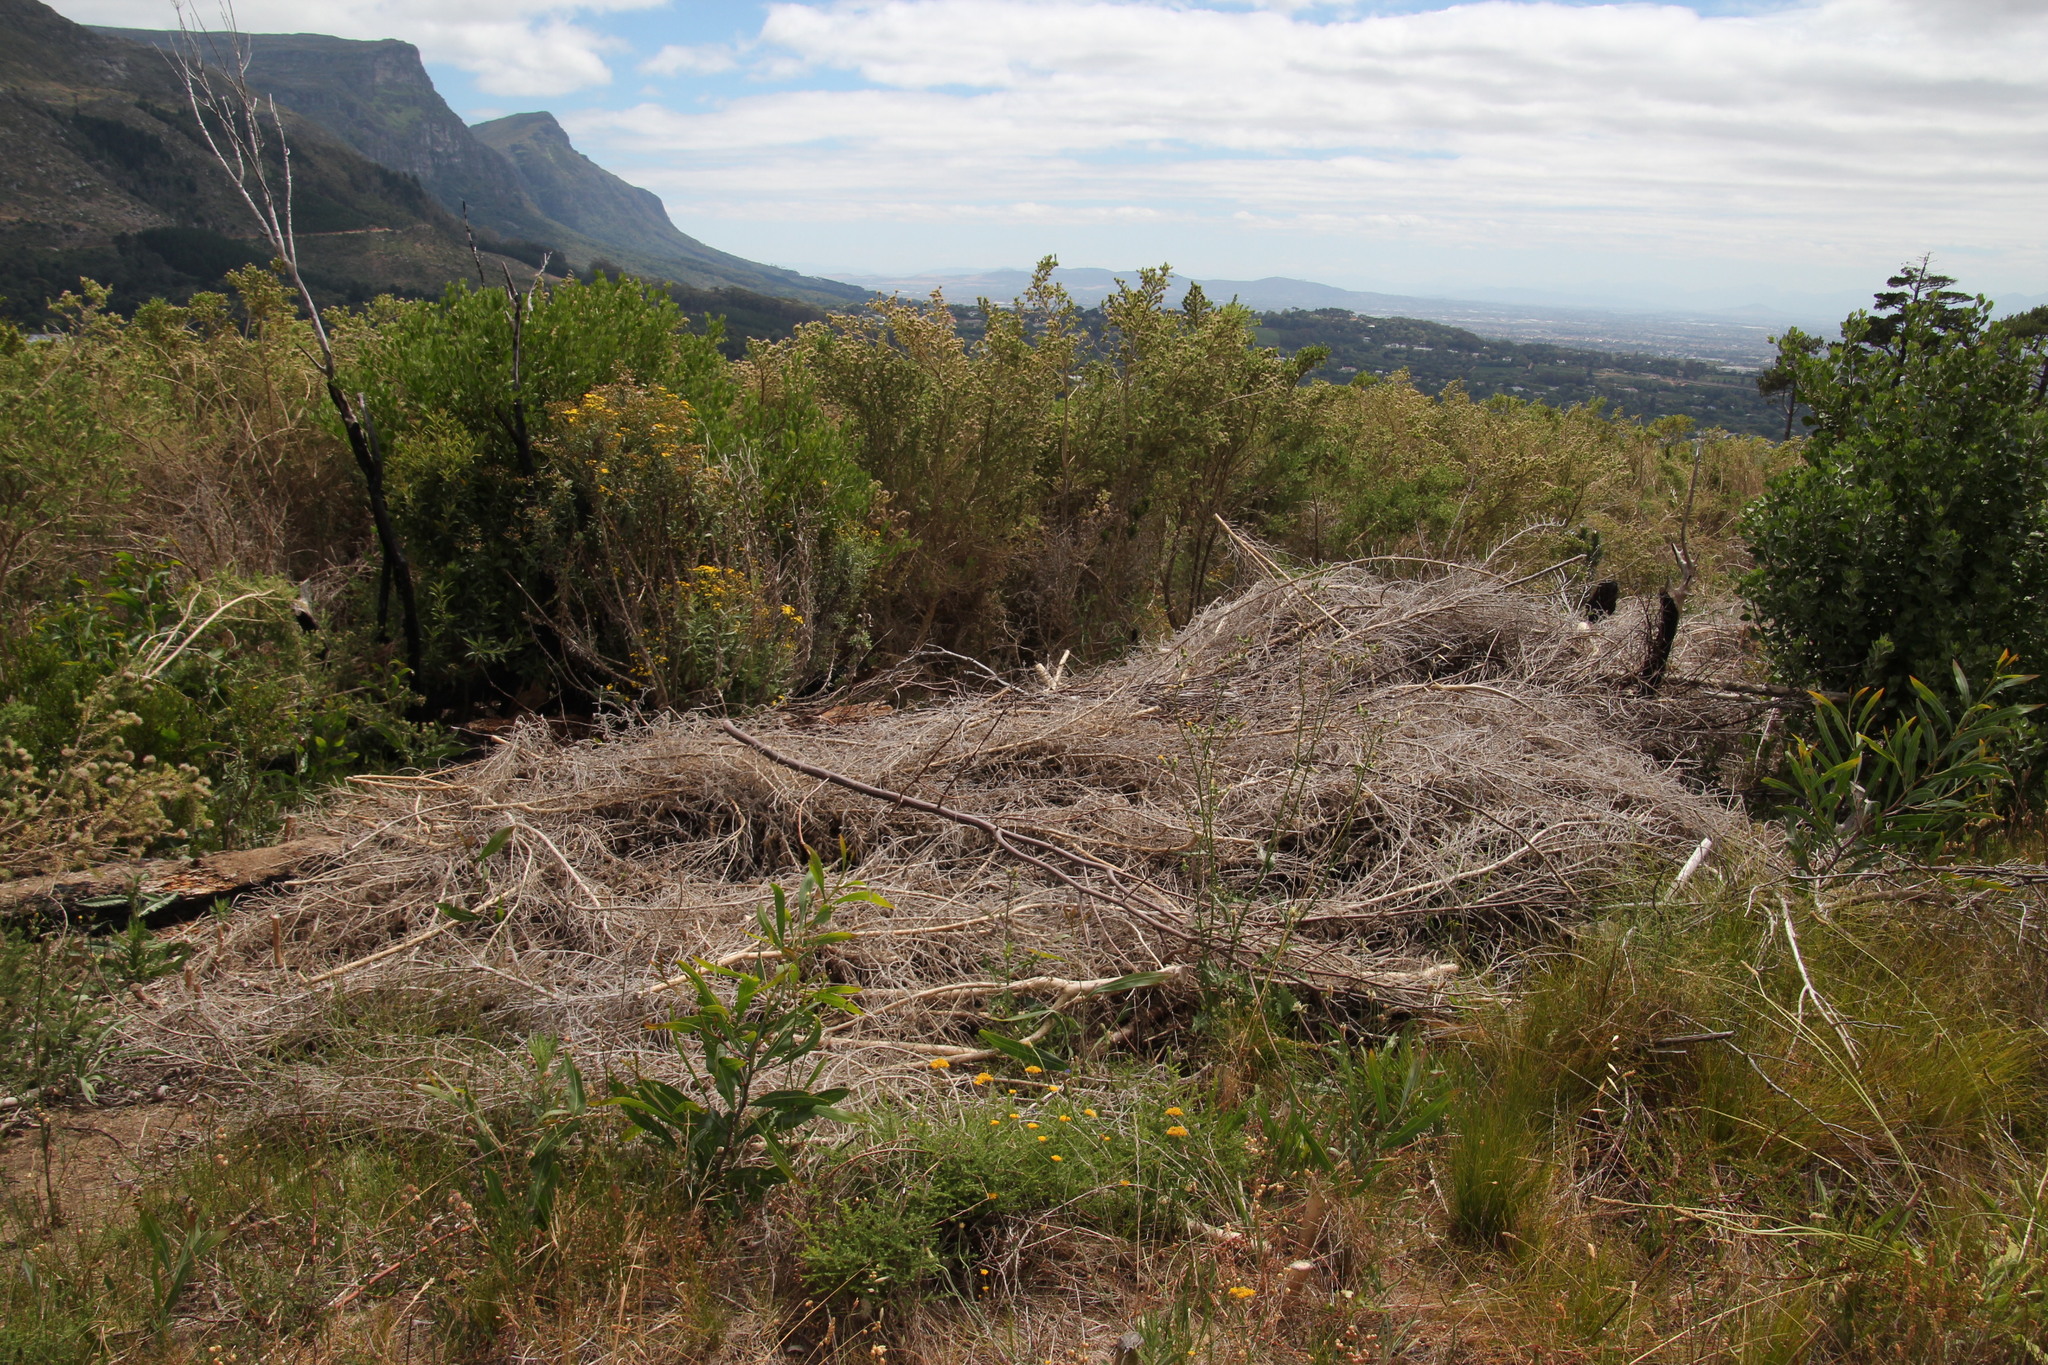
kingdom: Plantae
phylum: Tracheophyta
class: Magnoliopsida
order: Fabales
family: Fabaceae
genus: Aspalathus
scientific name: Aspalathus chenopoda
